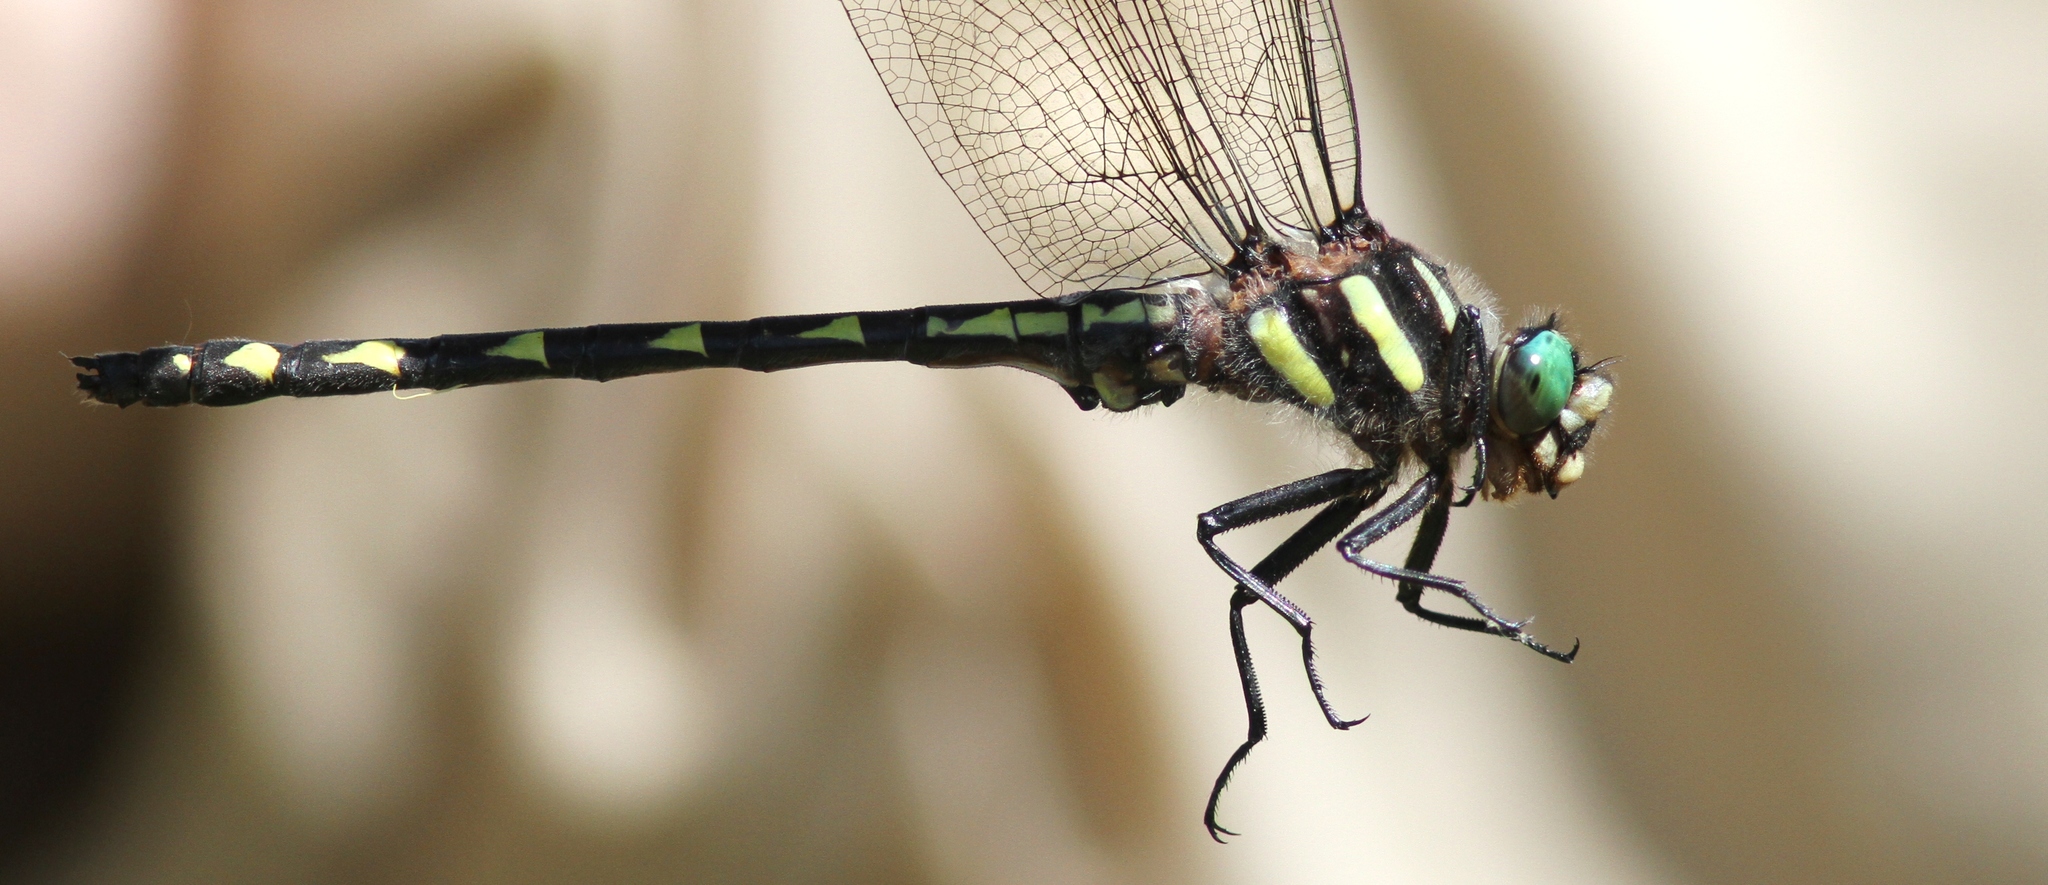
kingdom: Animalia
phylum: Arthropoda
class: Insecta
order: Odonata
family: Cordulegastridae
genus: Cordulegaster
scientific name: Cordulegaster diastatops
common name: Delta-spotted spiketail
